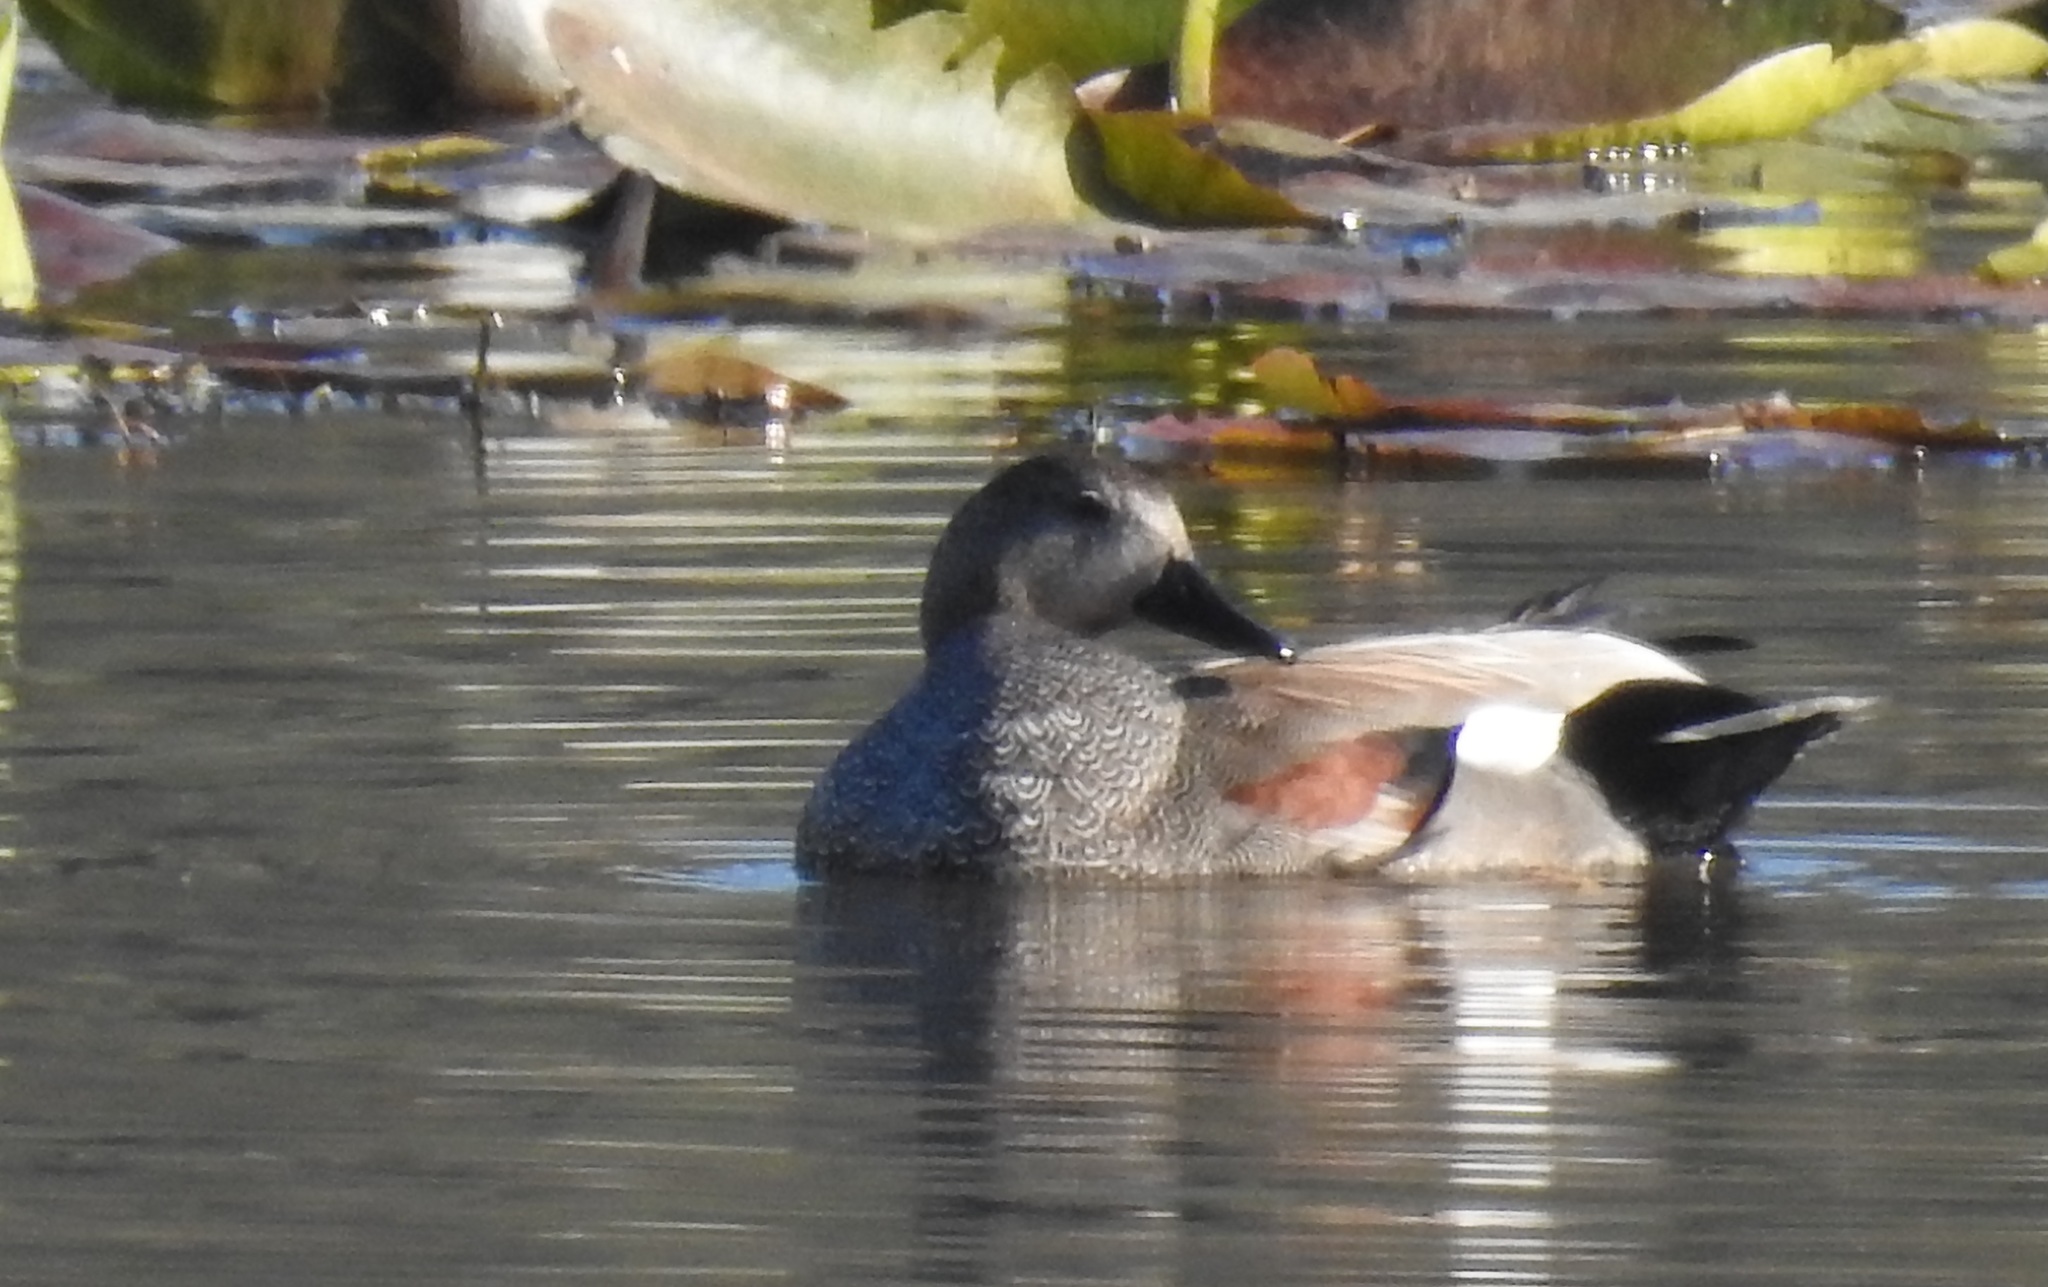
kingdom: Animalia
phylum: Chordata
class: Aves
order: Anseriformes
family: Anatidae
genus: Mareca
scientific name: Mareca strepera
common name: Gadwall
